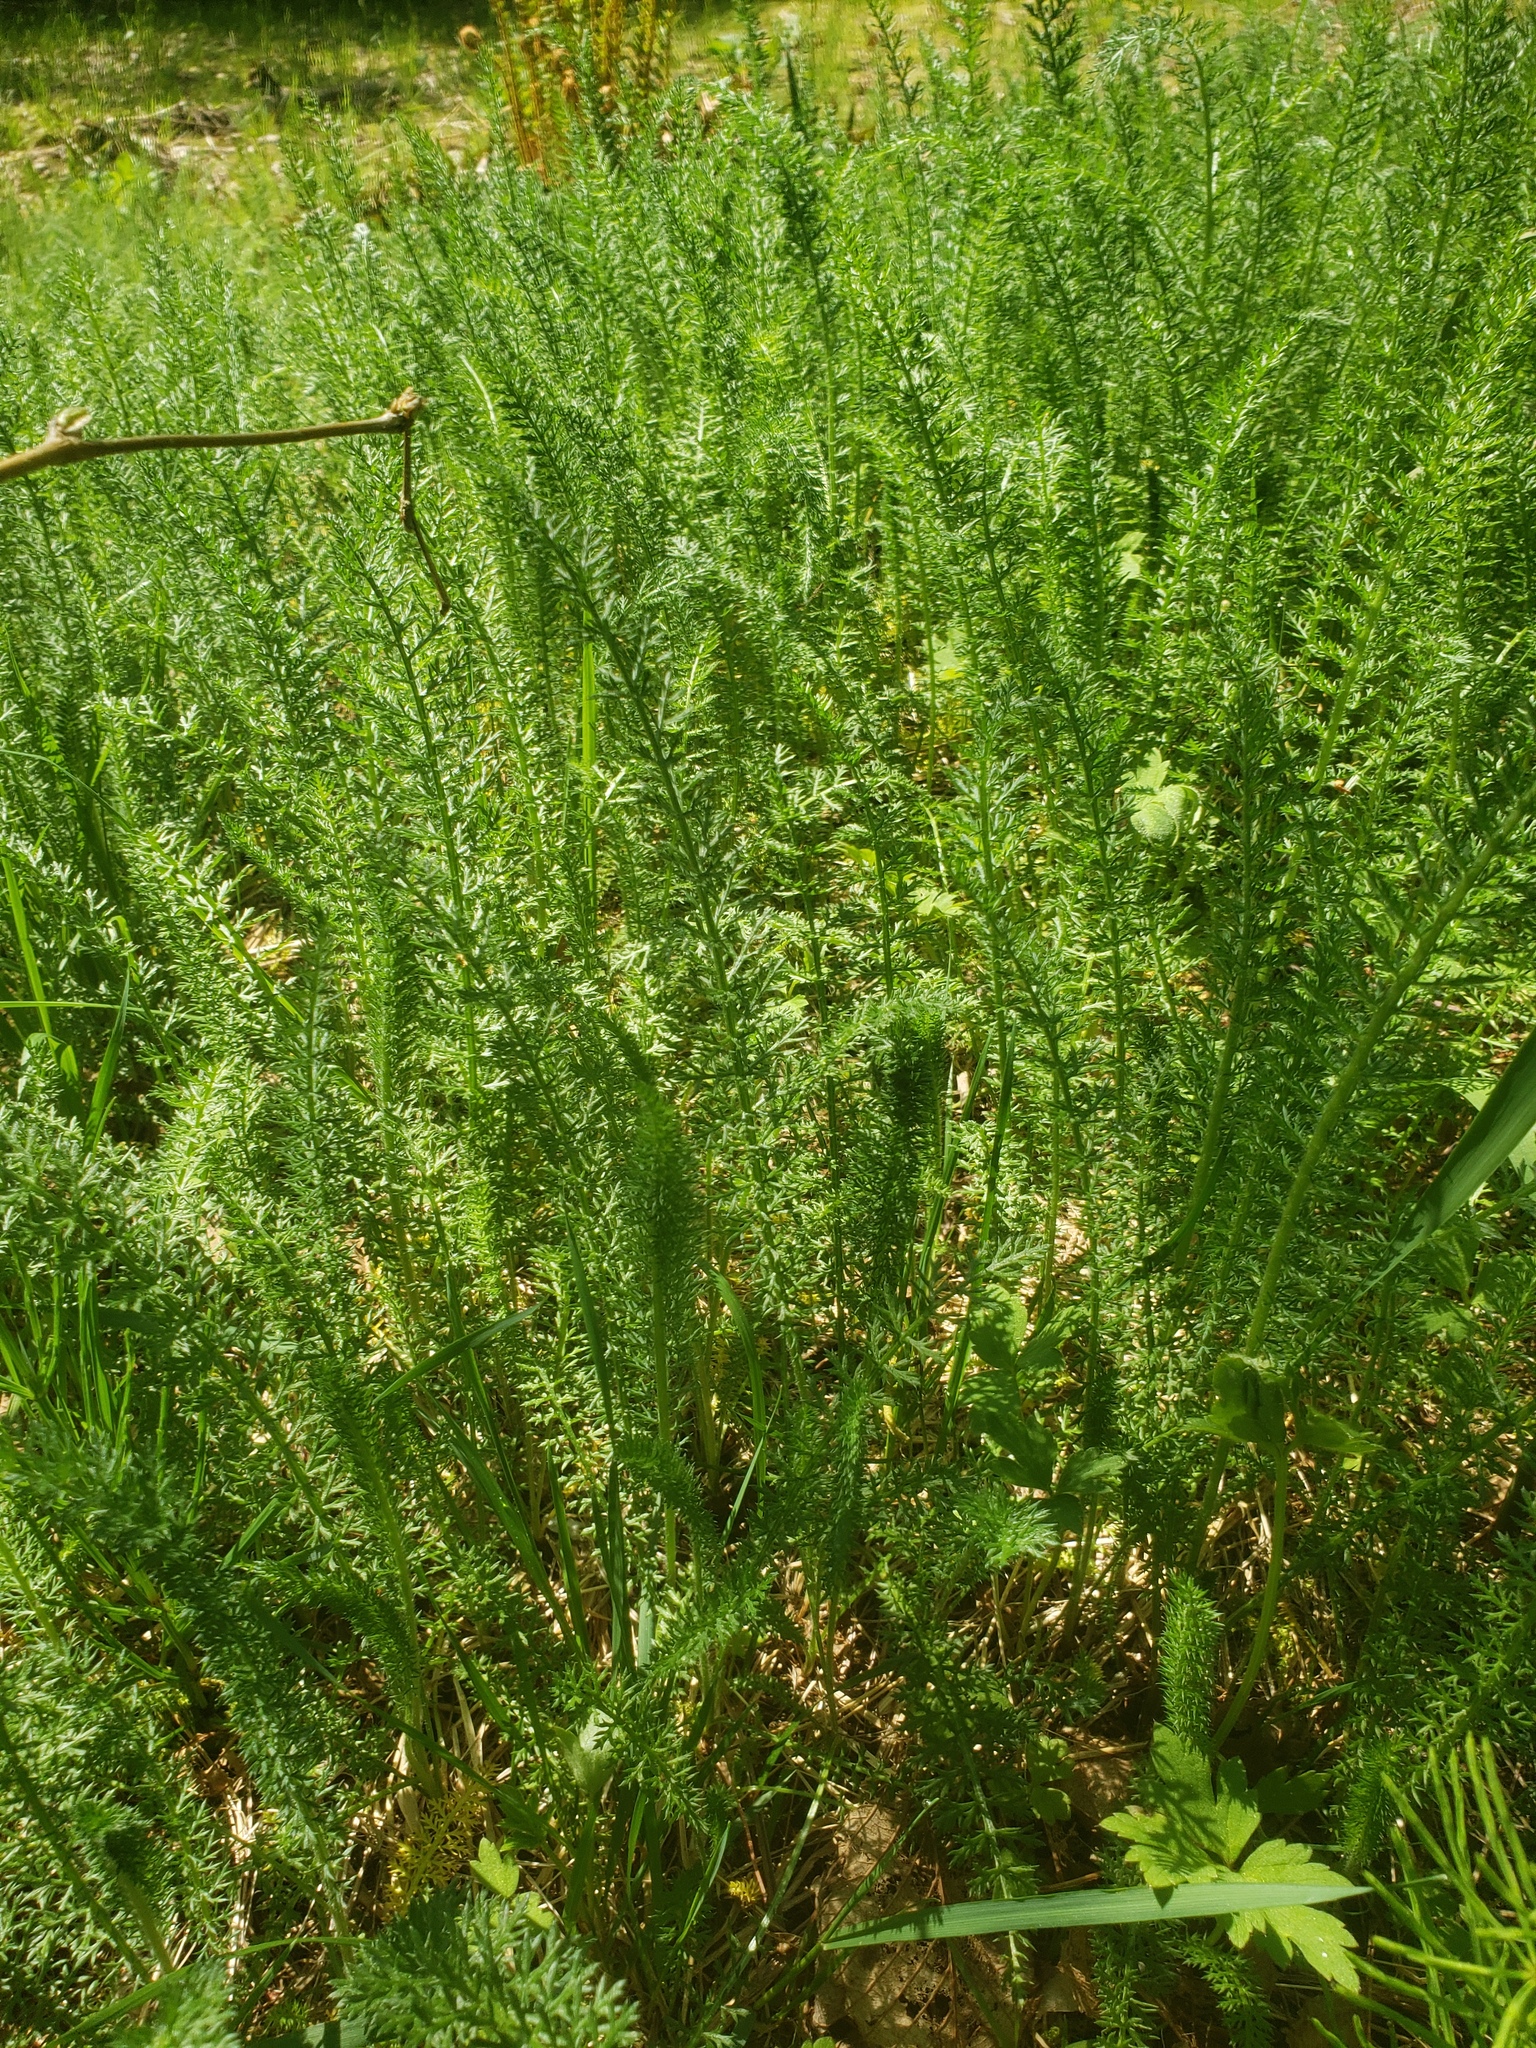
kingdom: Plantae
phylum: Tracheophyta
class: Magnoliopsida
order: Asterales
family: Asteraceae
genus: Achillea
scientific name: Achillea millefolium
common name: Yarrow
